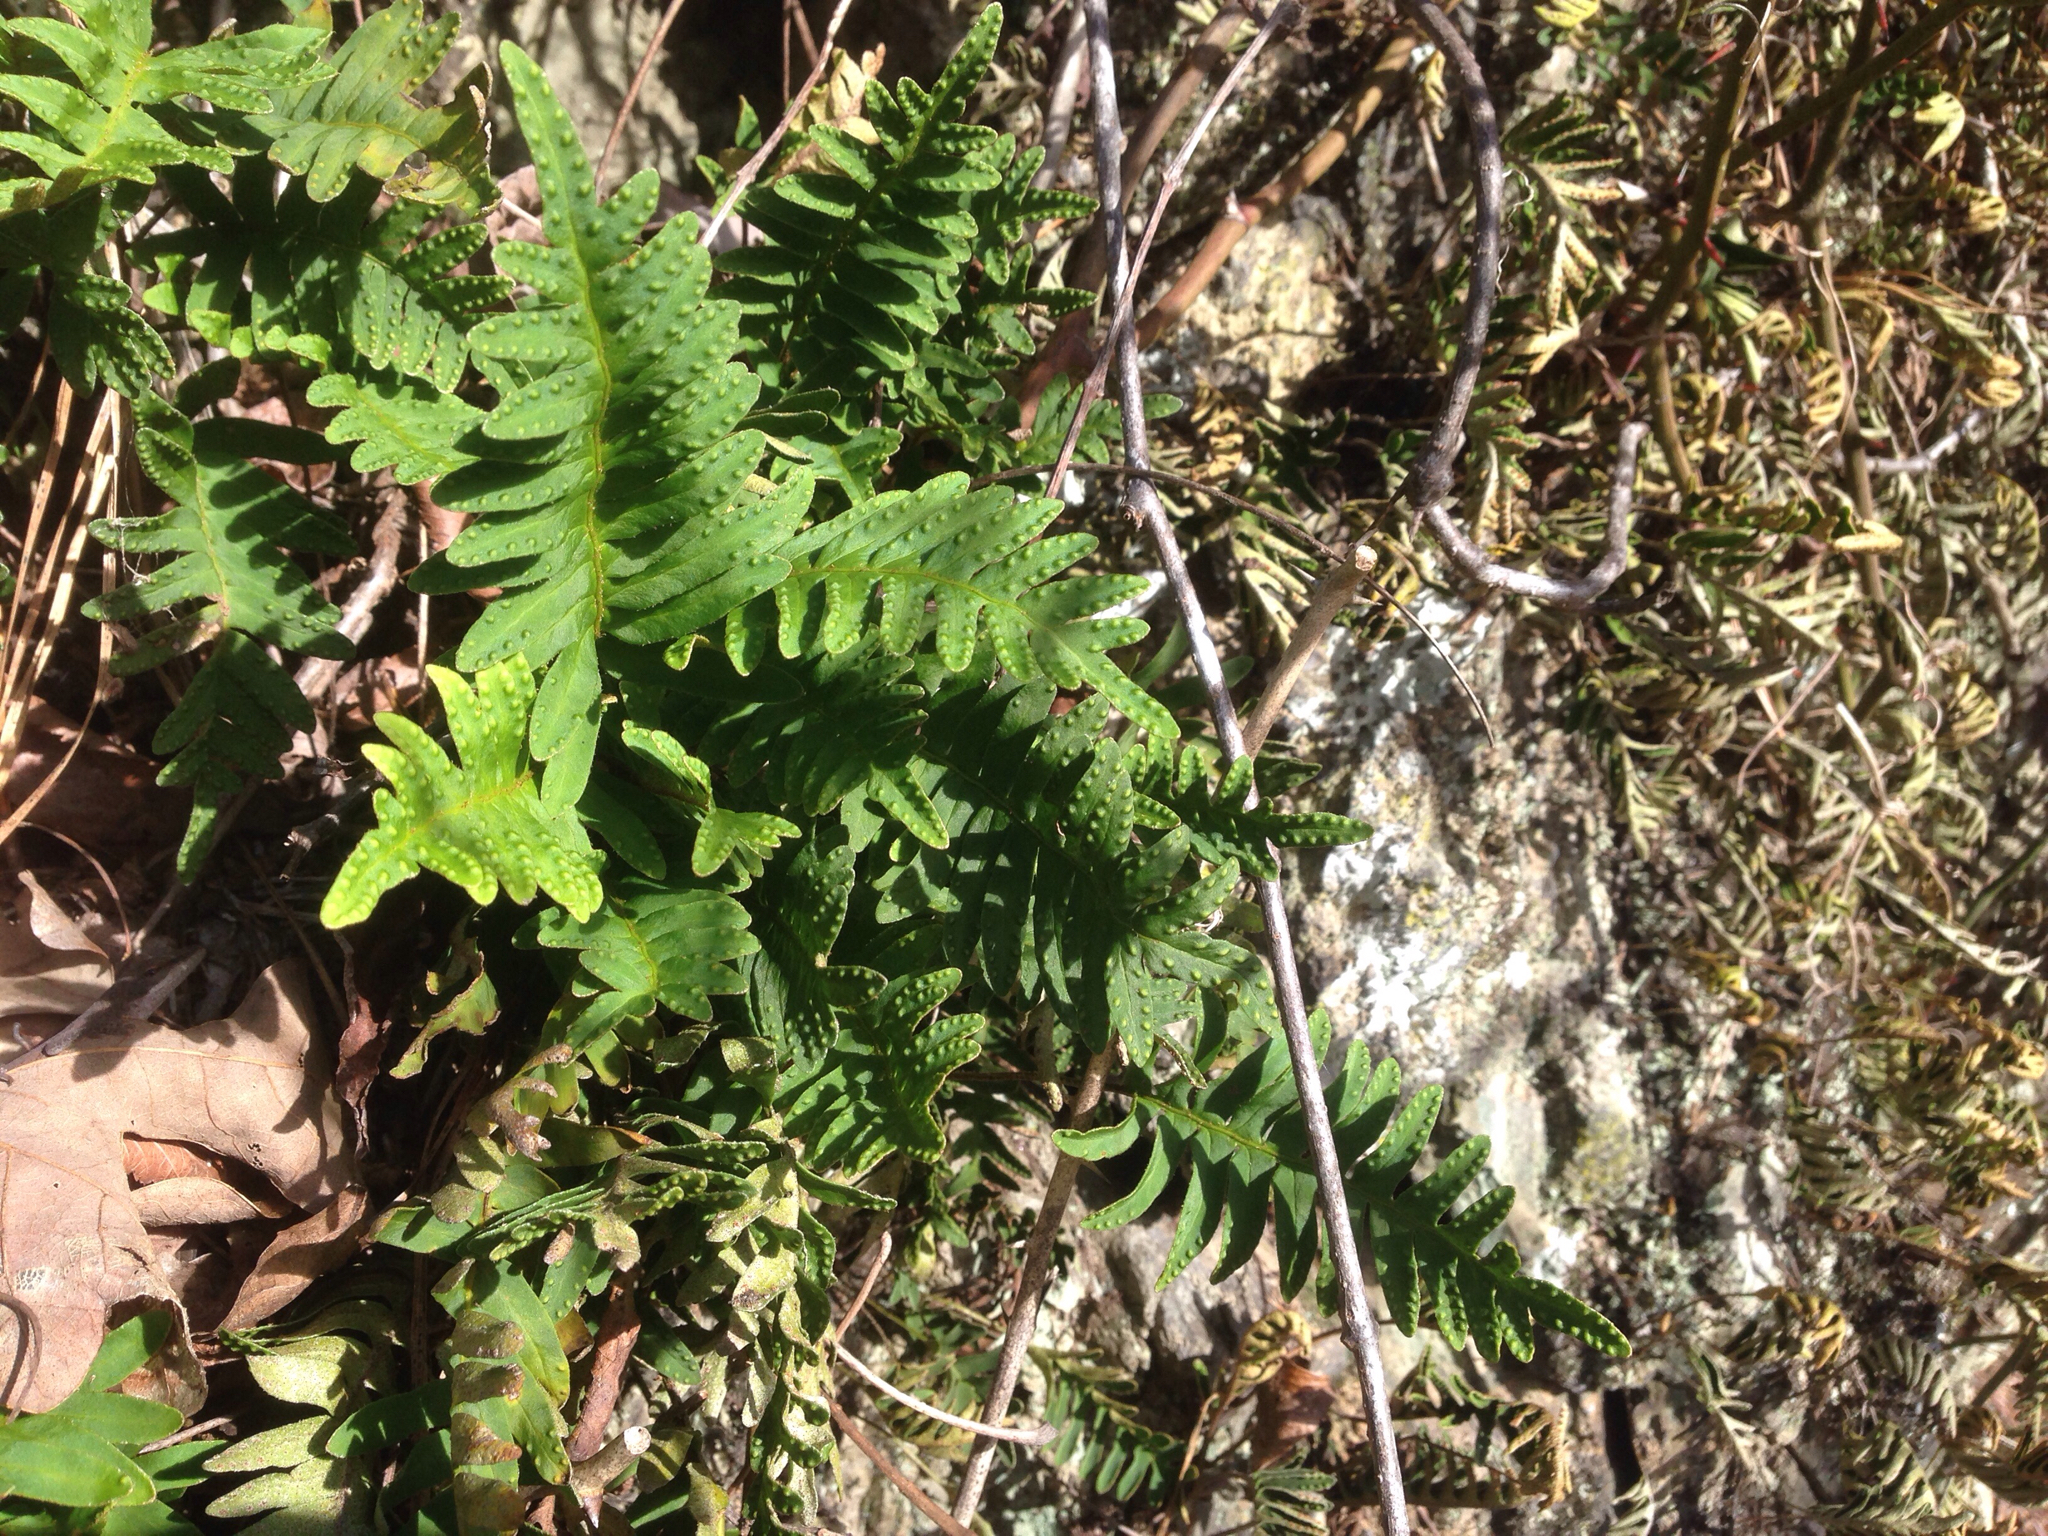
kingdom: Plantae
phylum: Tracheophyta
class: Polypodiopsida
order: Polypodiales
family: Polypodiaceae
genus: Pleopeltis
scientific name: Pleopeltis michauxiana
